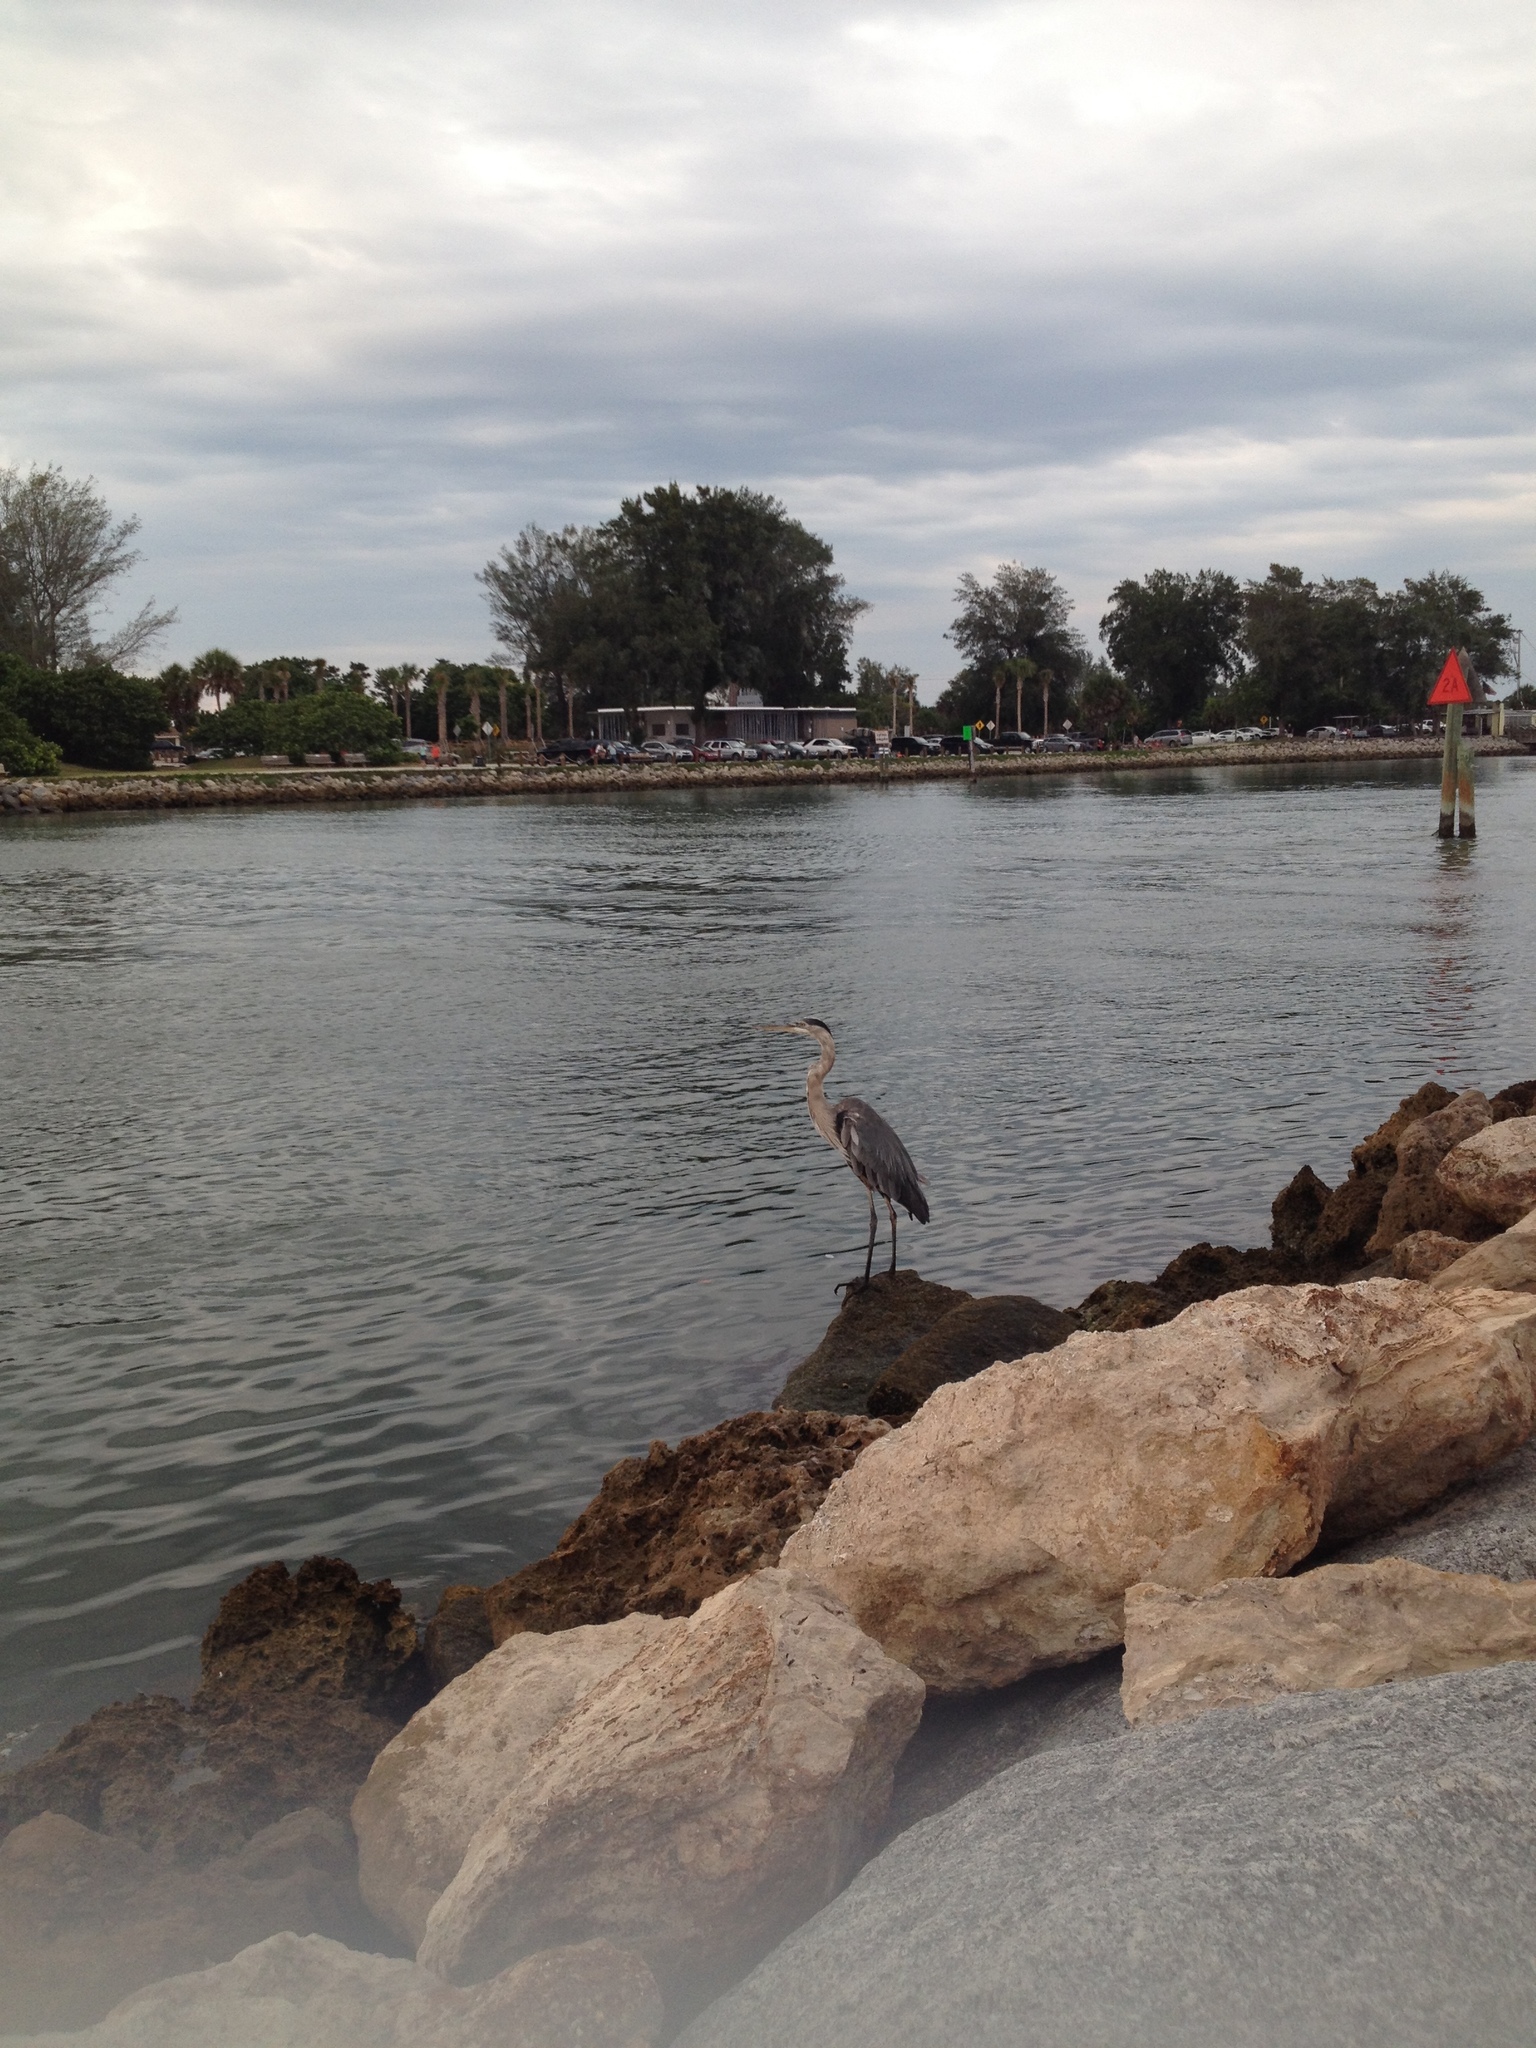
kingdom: Animalia
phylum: Chordata
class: Aves
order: Pelecaniformes
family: Ardeidae
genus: Ardea
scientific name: Ardea herodias
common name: Great blue heron
